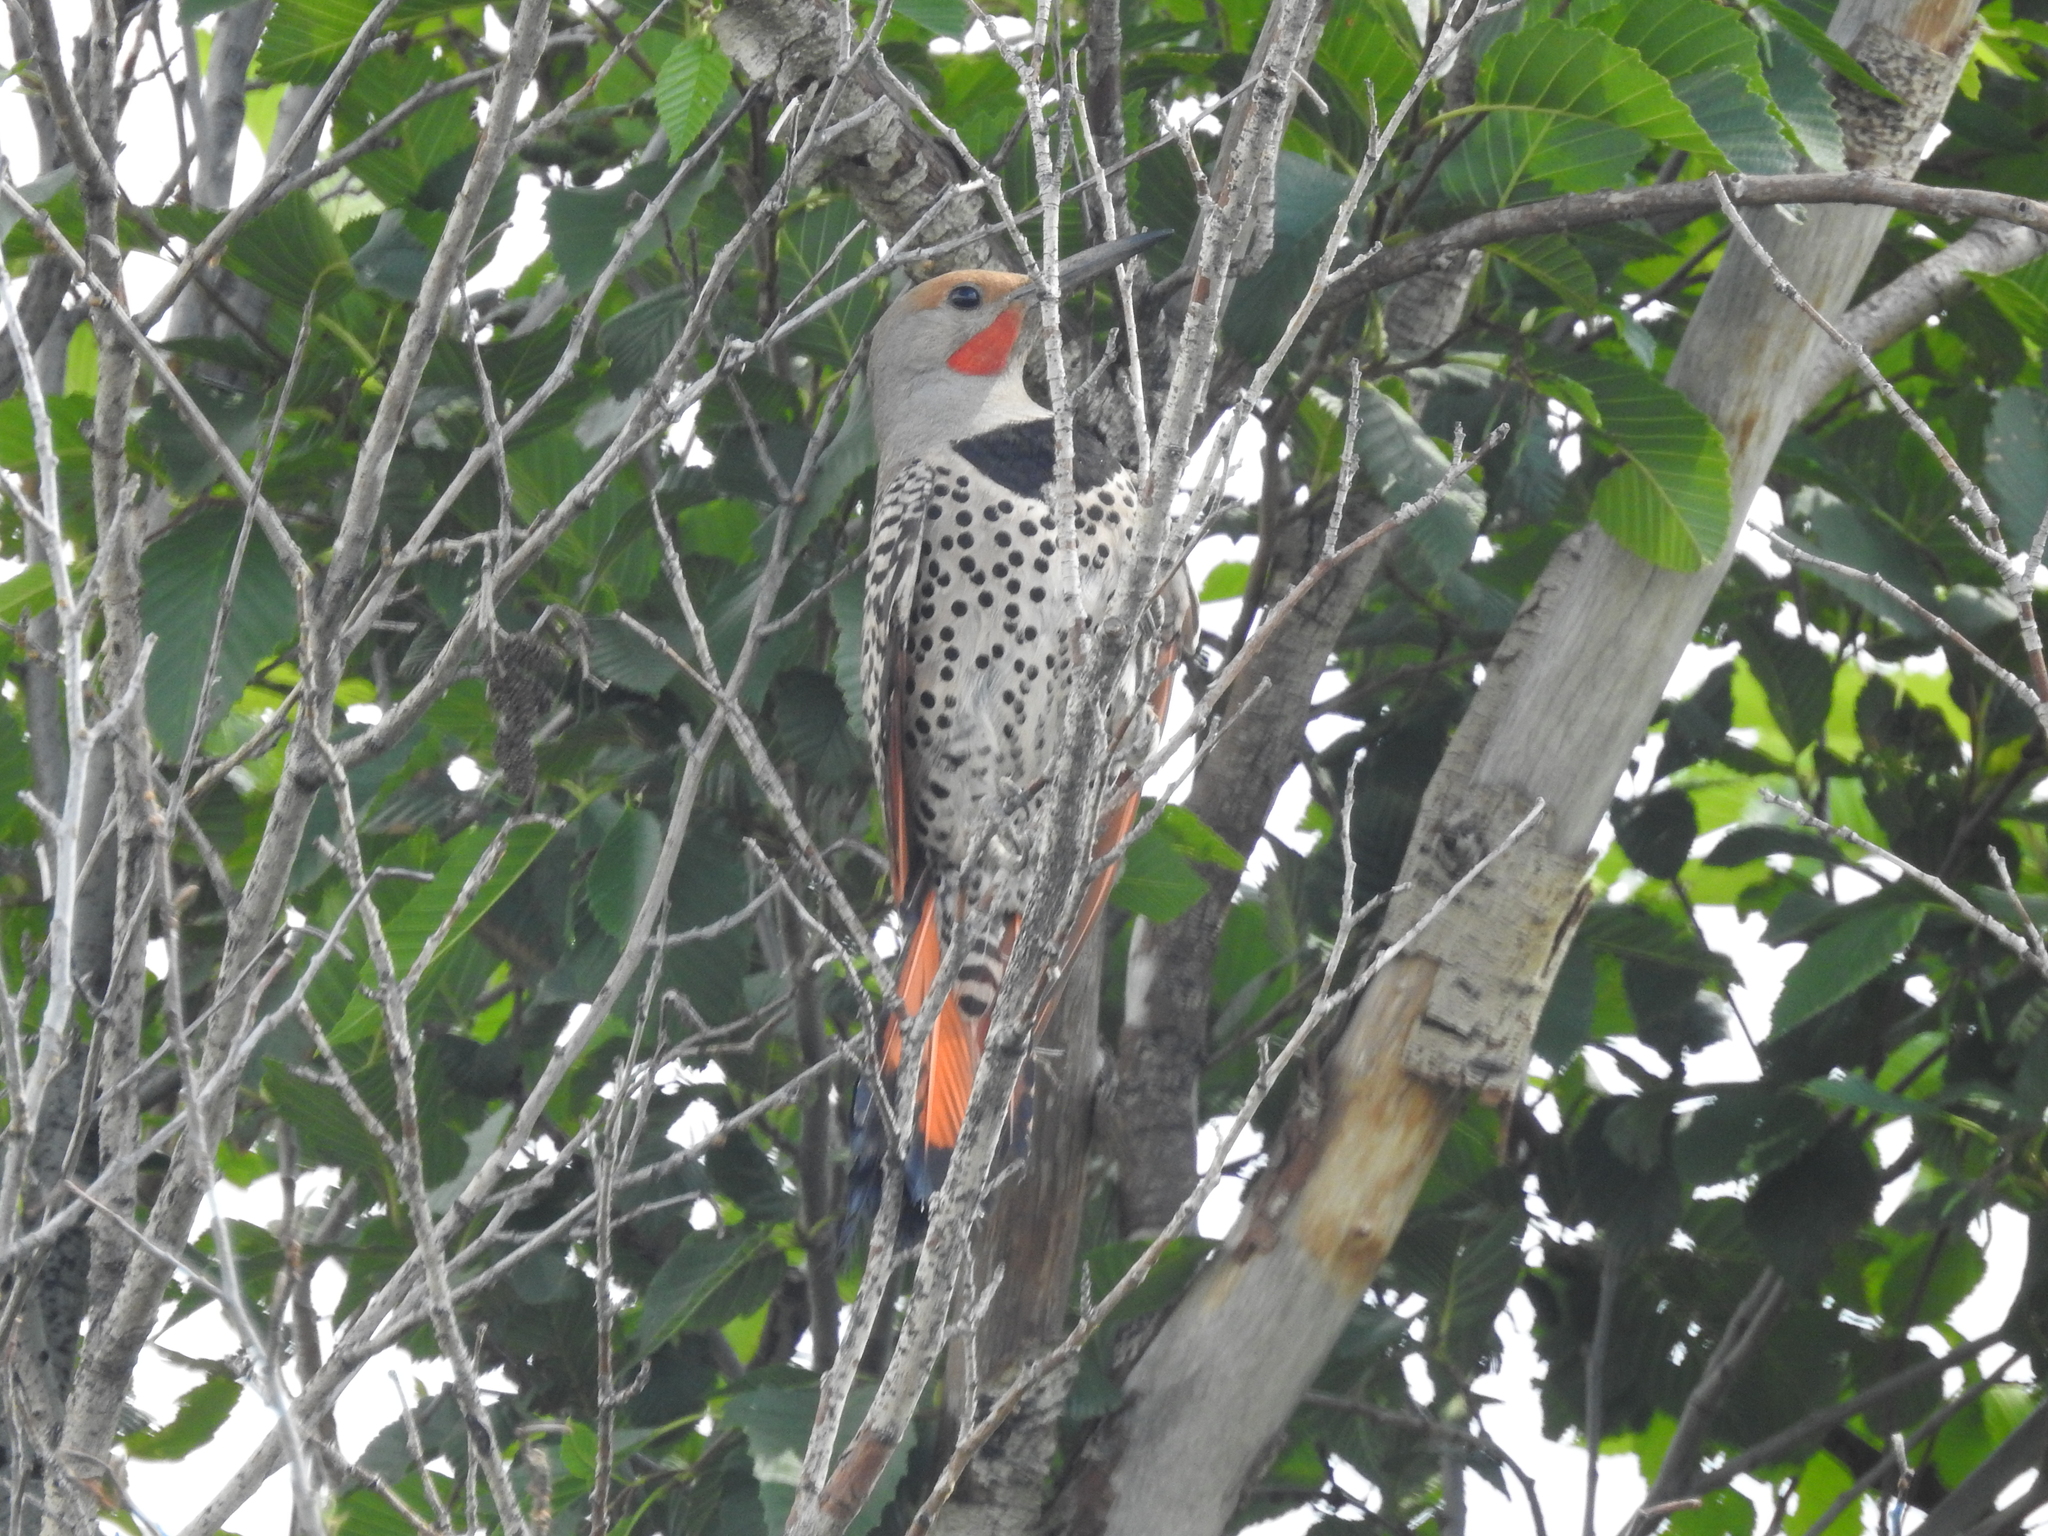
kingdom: Animalia
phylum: Chordata
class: Aves
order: Piciformes
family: Picidae
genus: Colaptes
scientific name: Colaptes auratus
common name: Northern flicker
